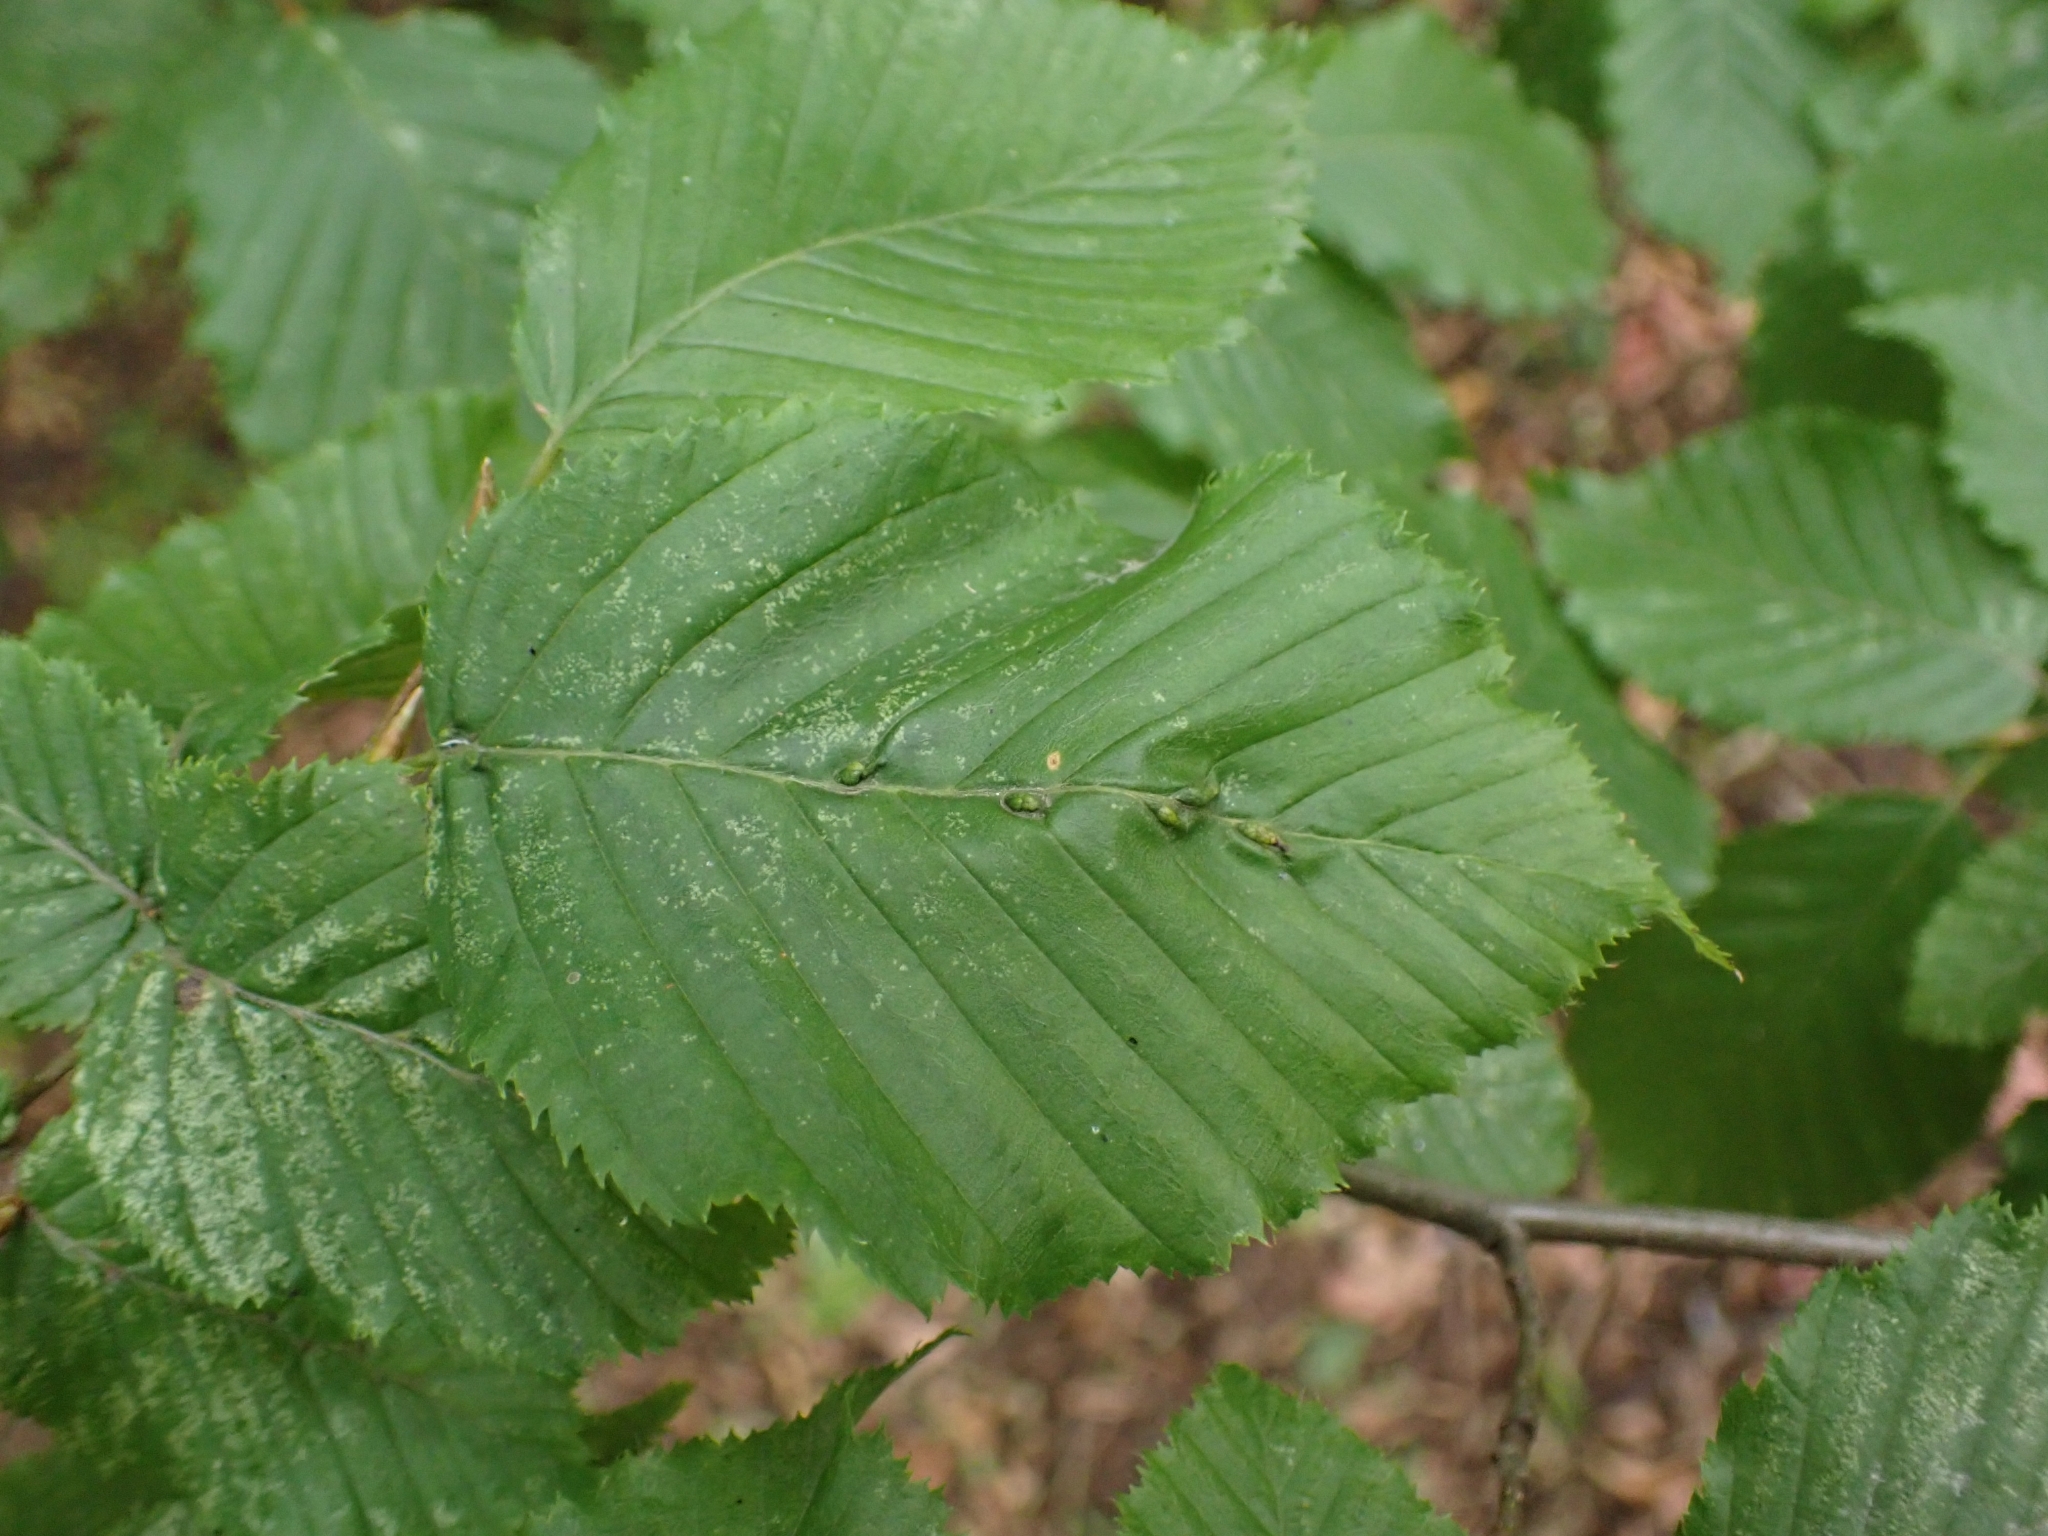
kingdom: Animalia
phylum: Arthropoda
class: Arachnida
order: Trombidiformes
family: Eriophyidae
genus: Aceria
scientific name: Aceria tenellus
